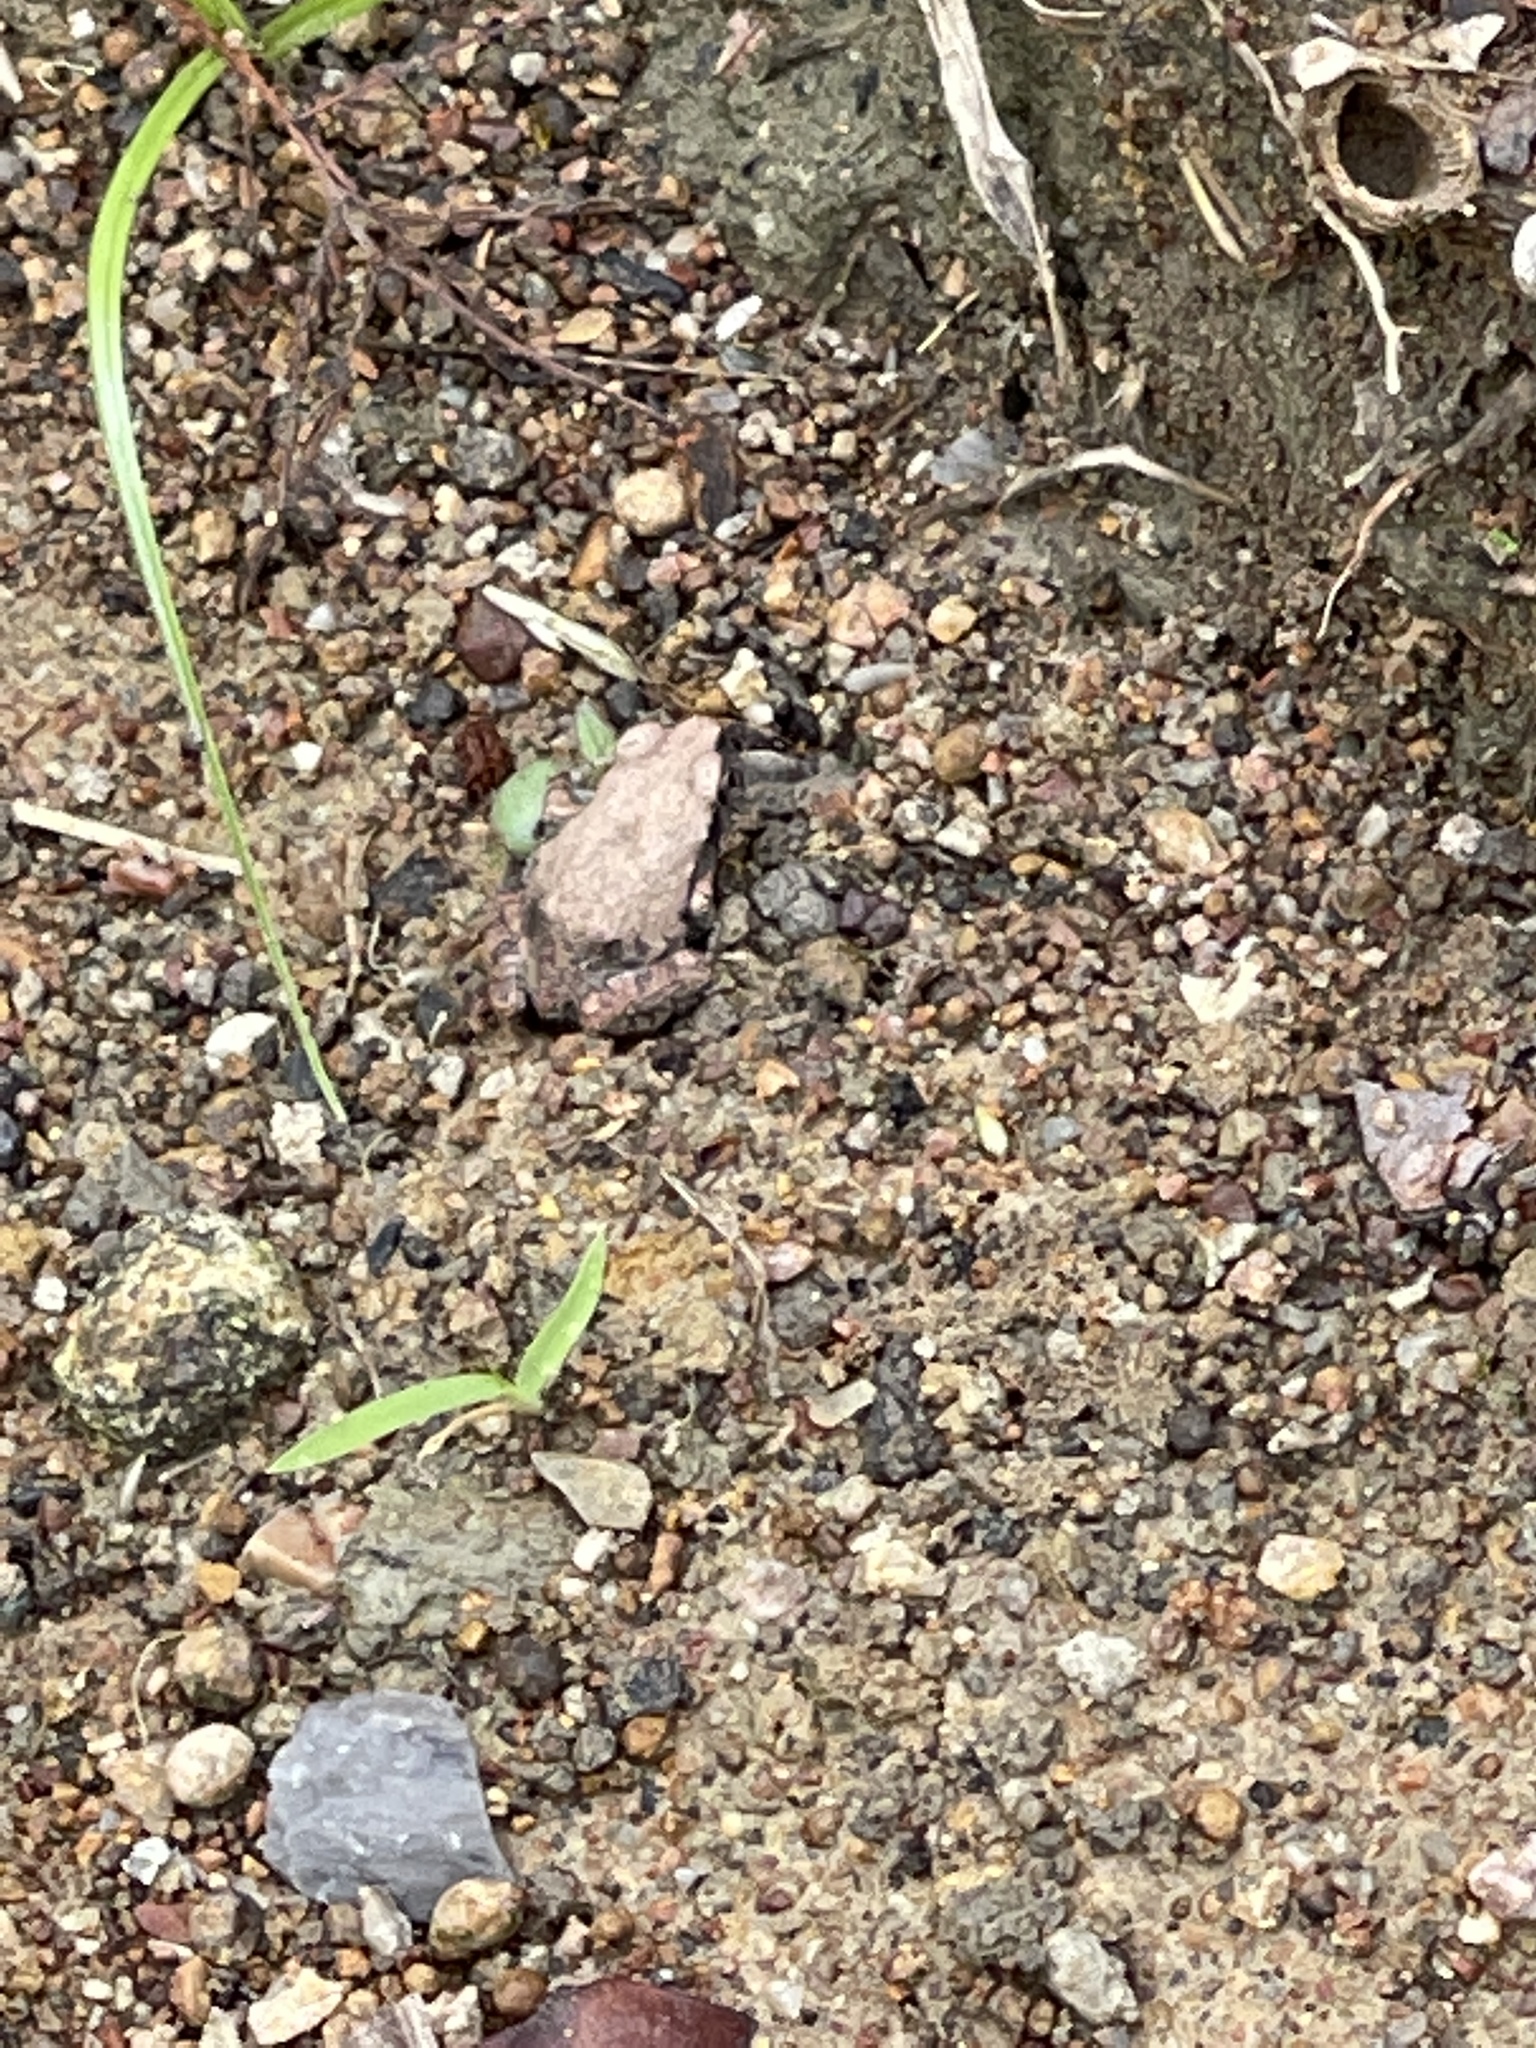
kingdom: Animalia
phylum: Chordata
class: Amphibia
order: Anura
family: Limnodynastidae
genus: Platyplectrum
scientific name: Platyplectrum ornatum
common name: Ornate burrowing frog
